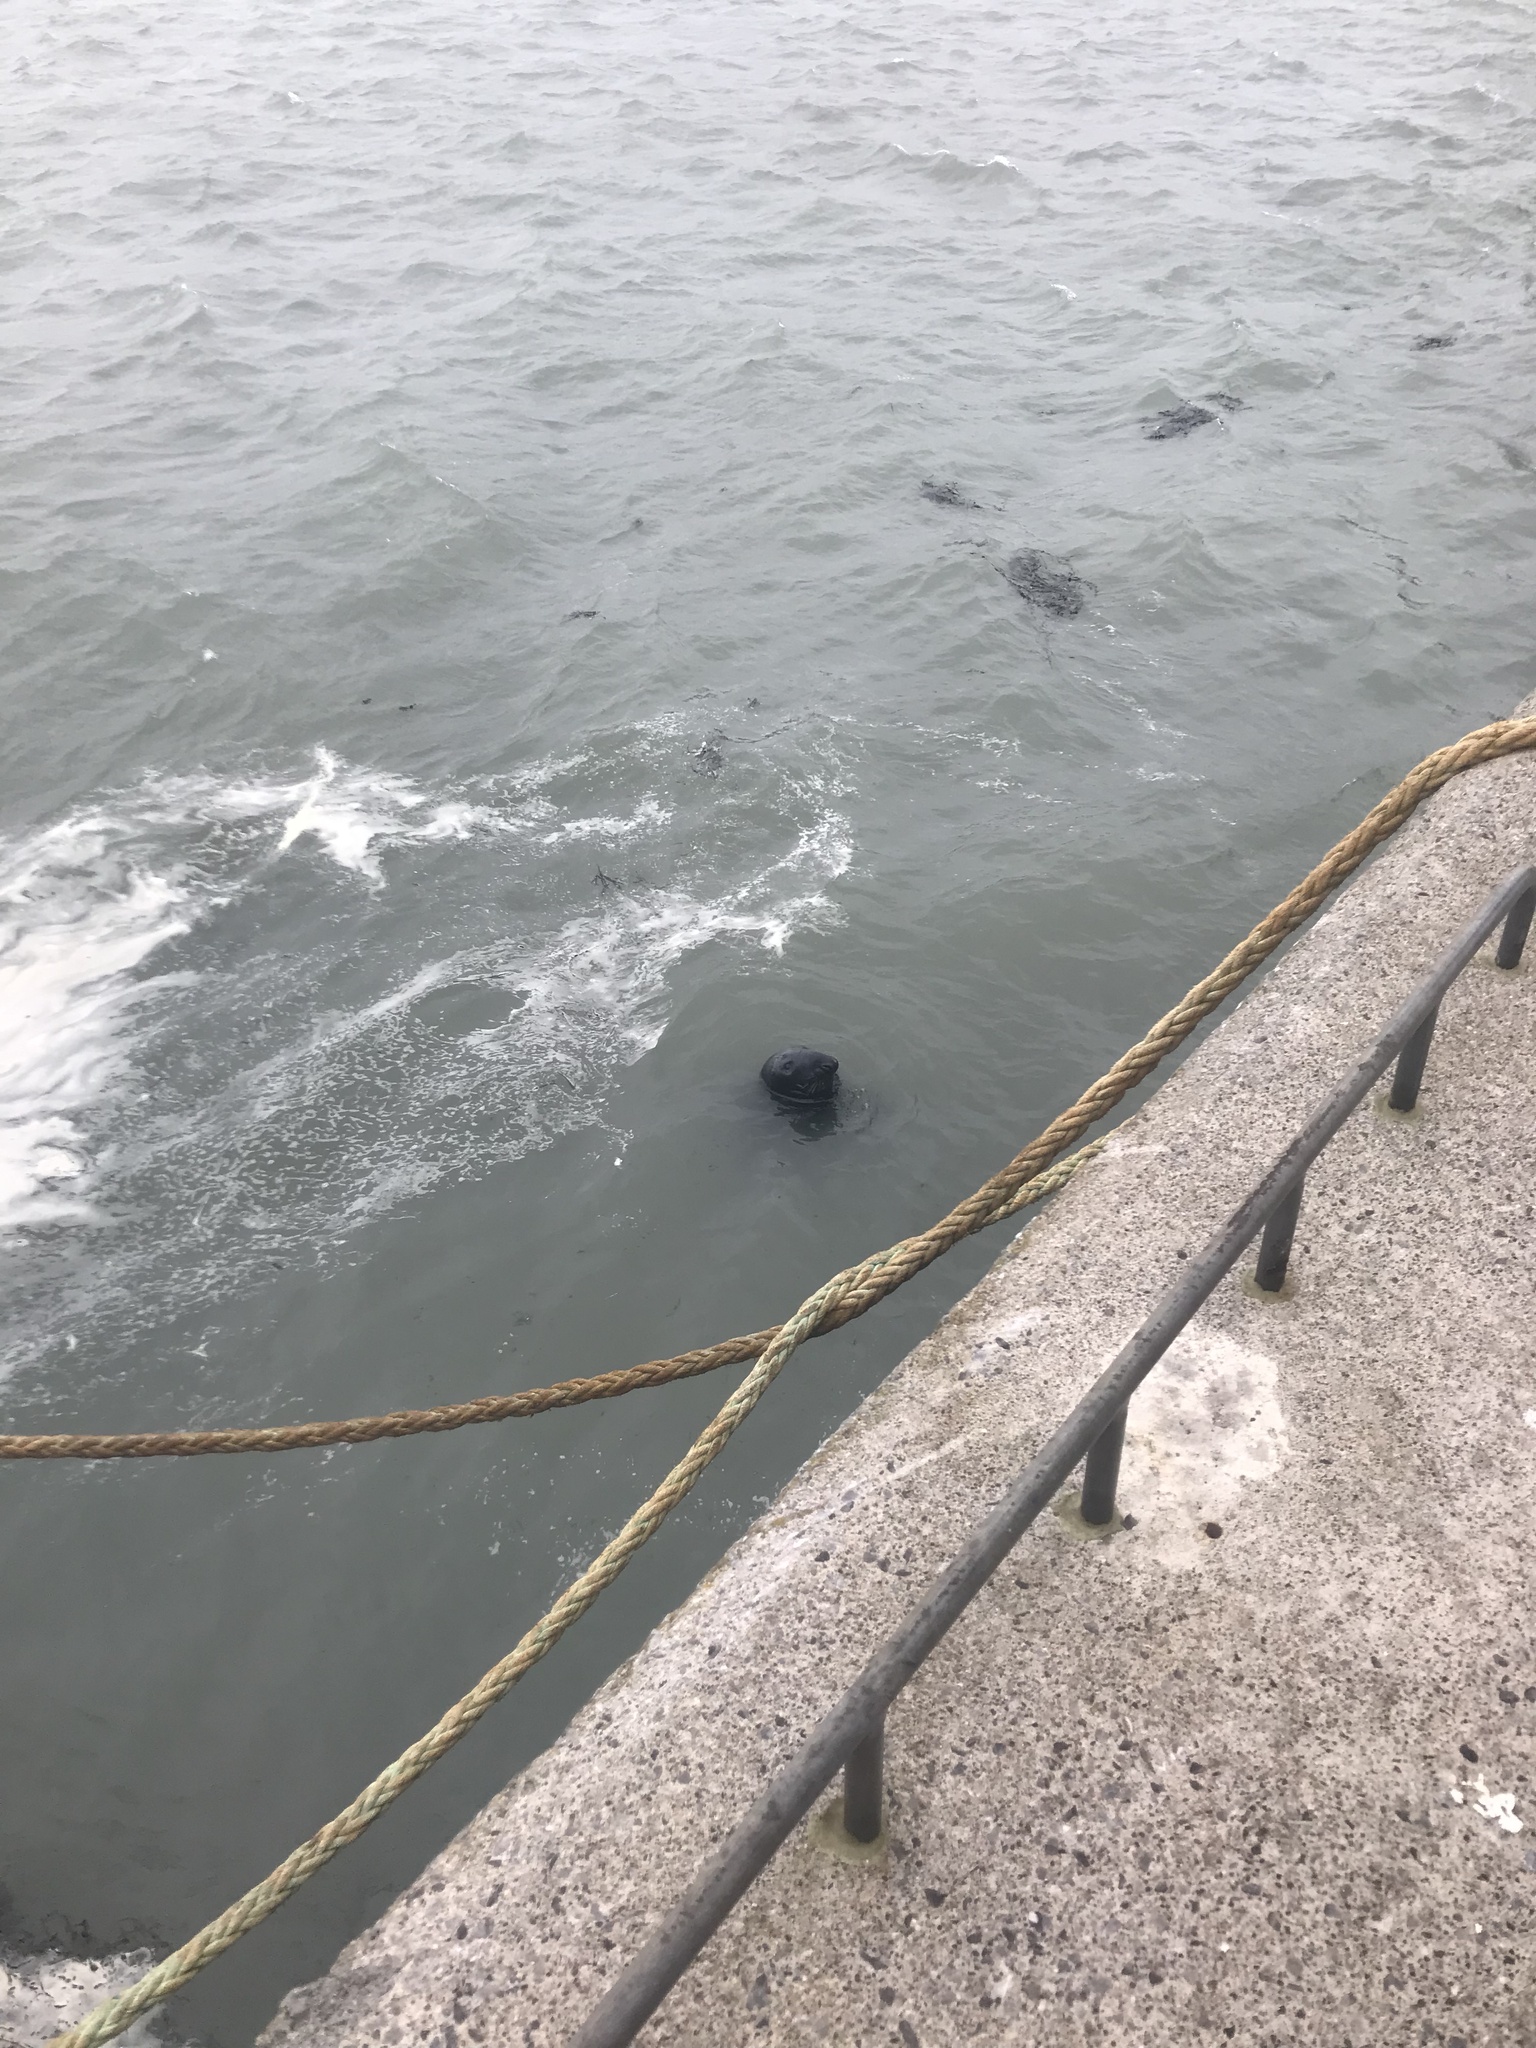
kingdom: Animalia
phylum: Chordata
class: Mammalia
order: Carnivora
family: Phocidae
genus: Halichoerus
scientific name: Halichoerus grypus
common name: Grey seal
